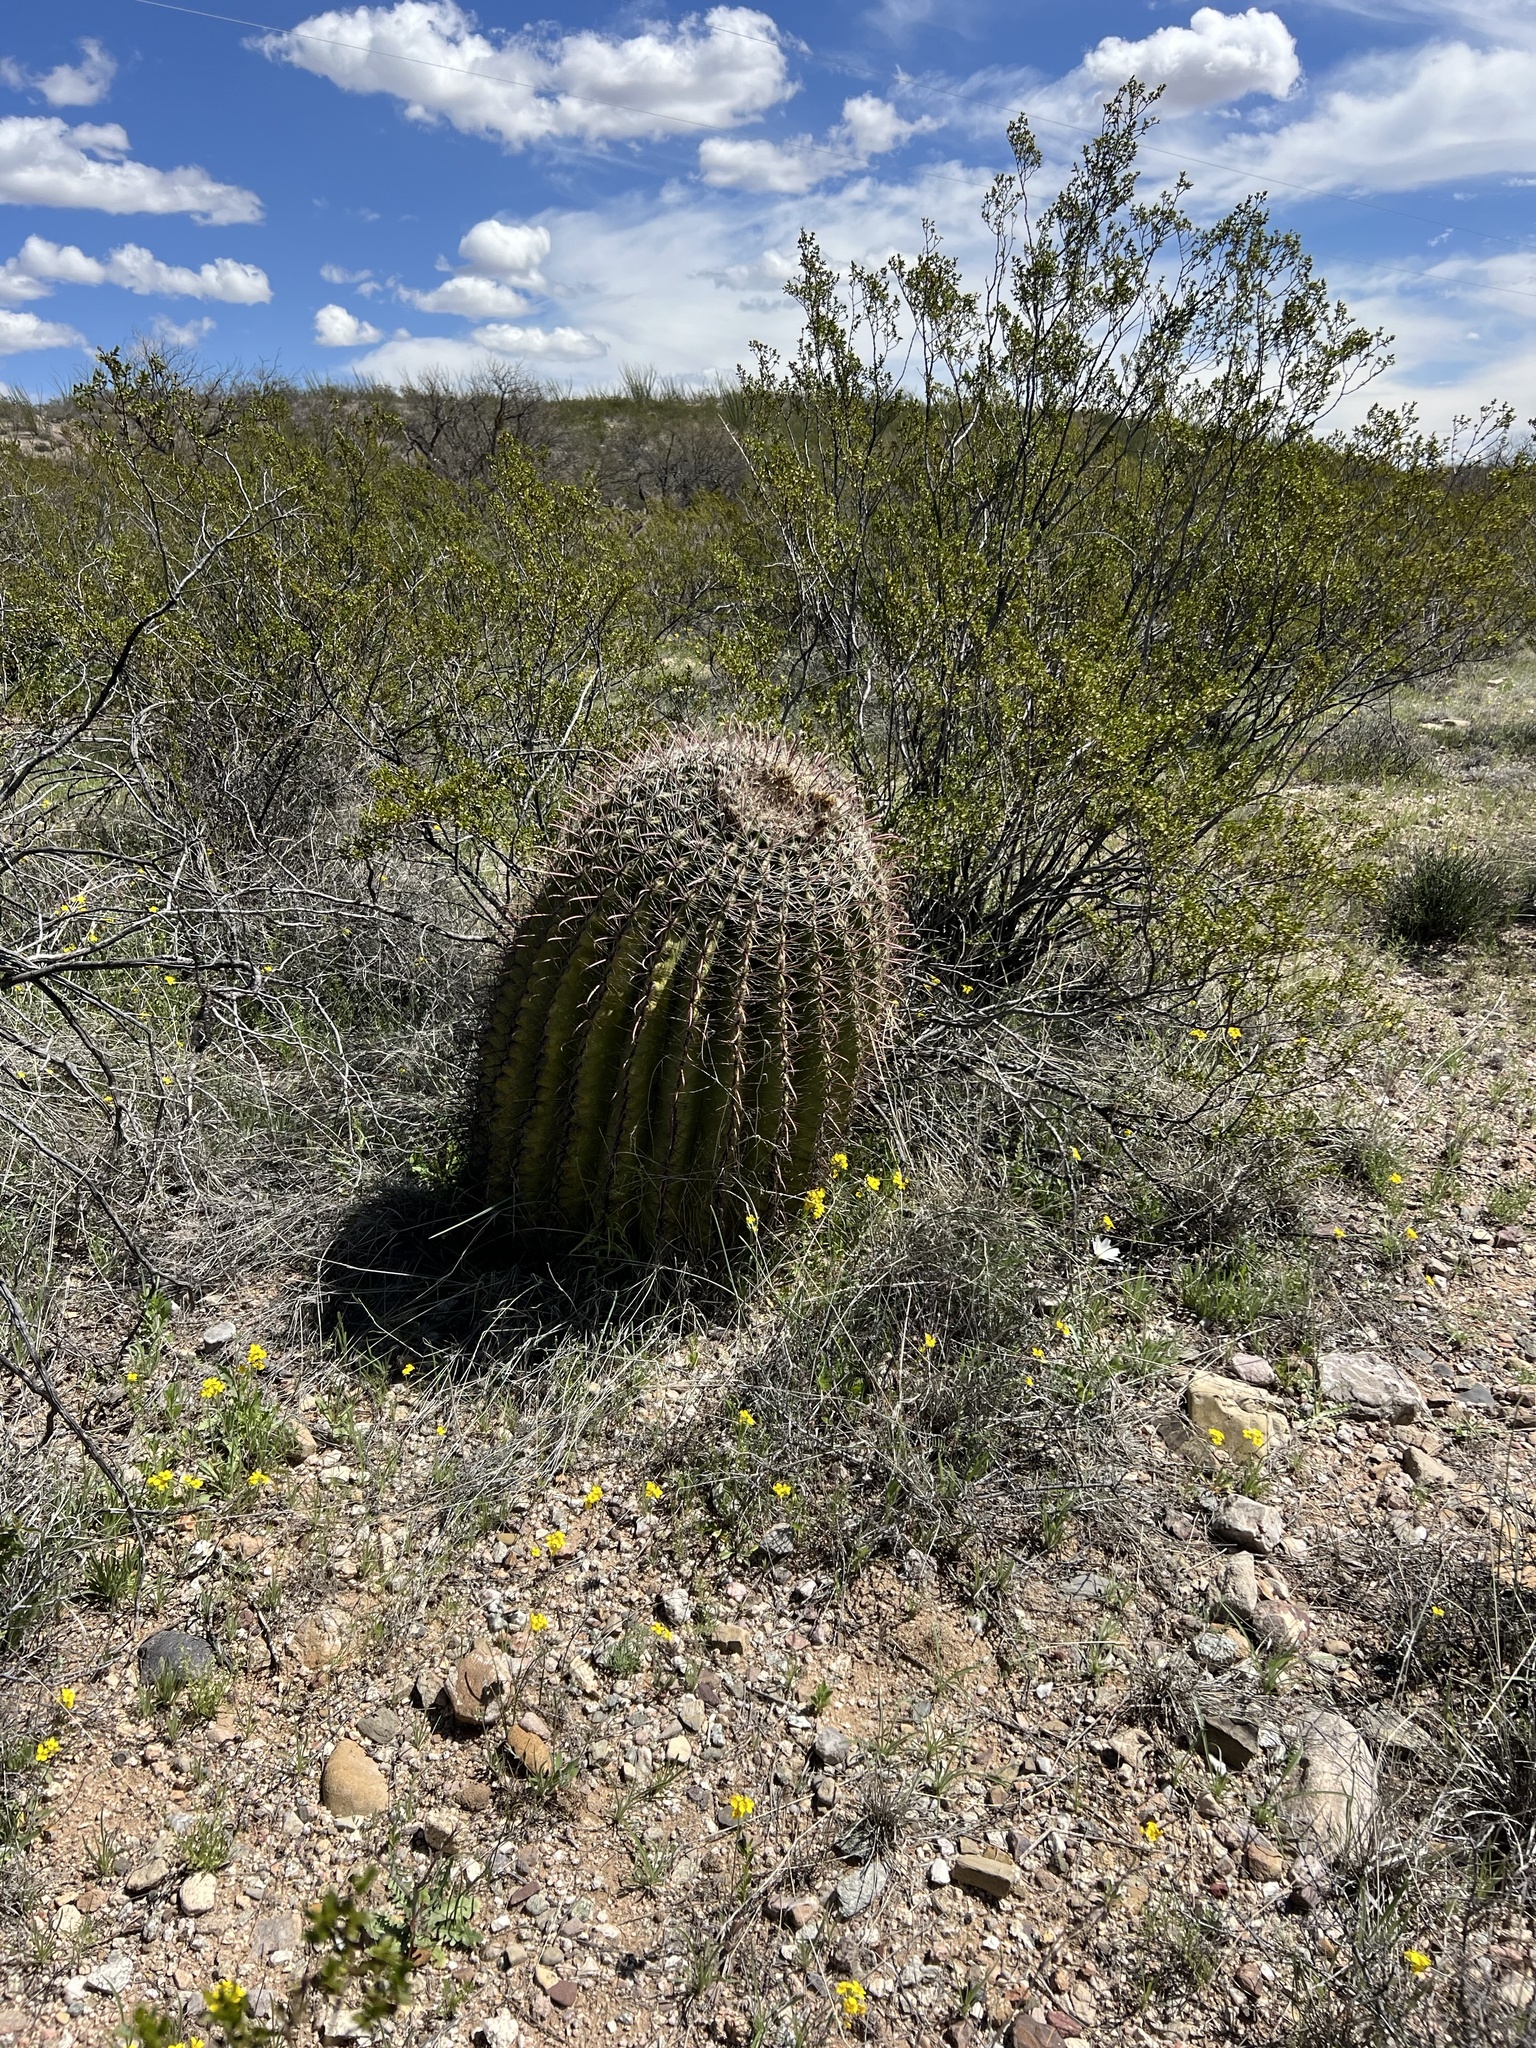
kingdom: Plantae
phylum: Tracheophyta
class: Magnoliopsida
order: Caryophyllales
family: Cactaceae
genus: Ferocactus
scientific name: Ferocactus wislizeni
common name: Candy barrel cactus
